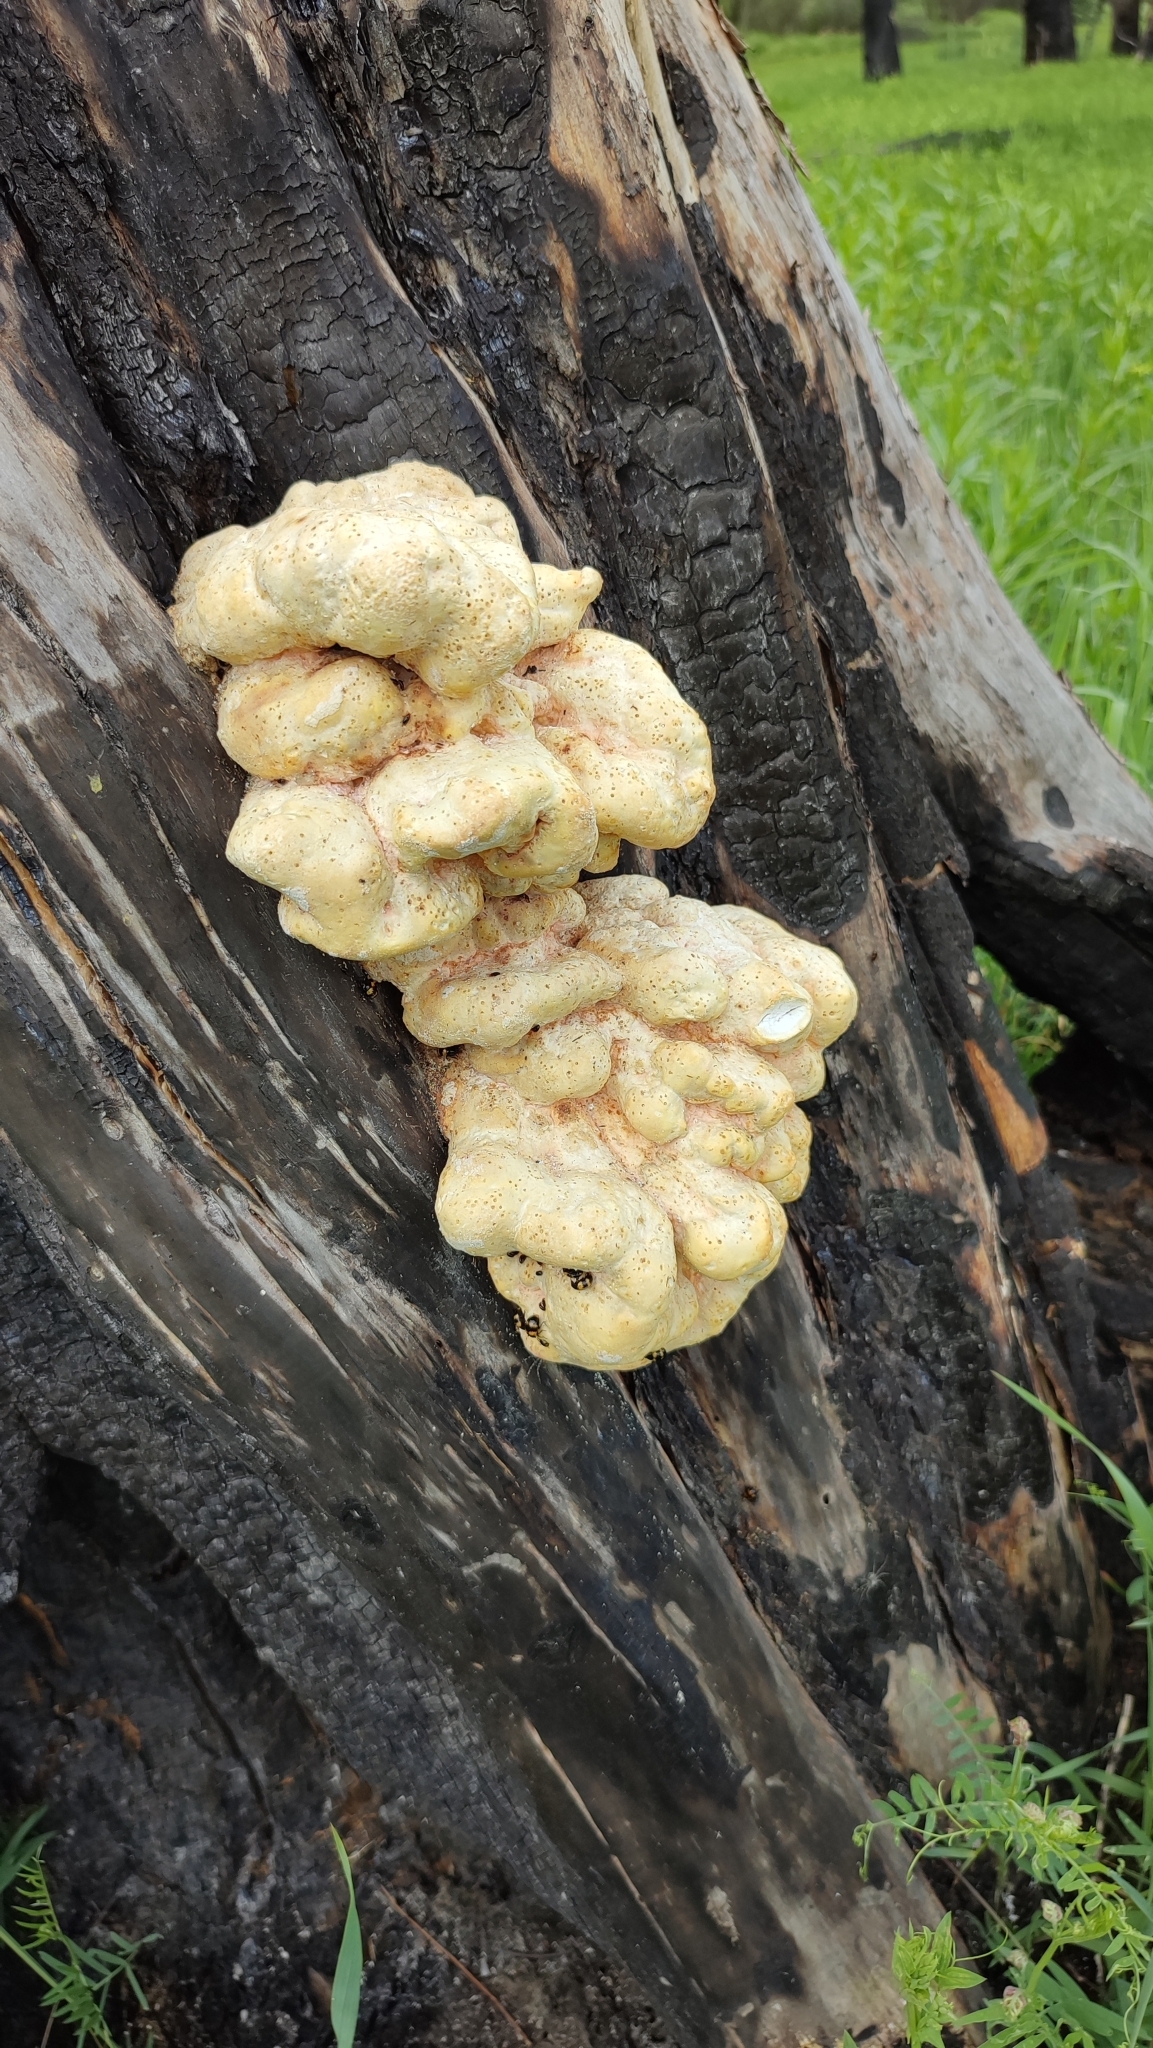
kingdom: Fungi
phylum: Basidiomycota
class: Agaricomycetes
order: Polyporales
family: Laetiporaceae
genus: Laetiporus
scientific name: Laetiporus sulphureus
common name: Chicken of the woods
